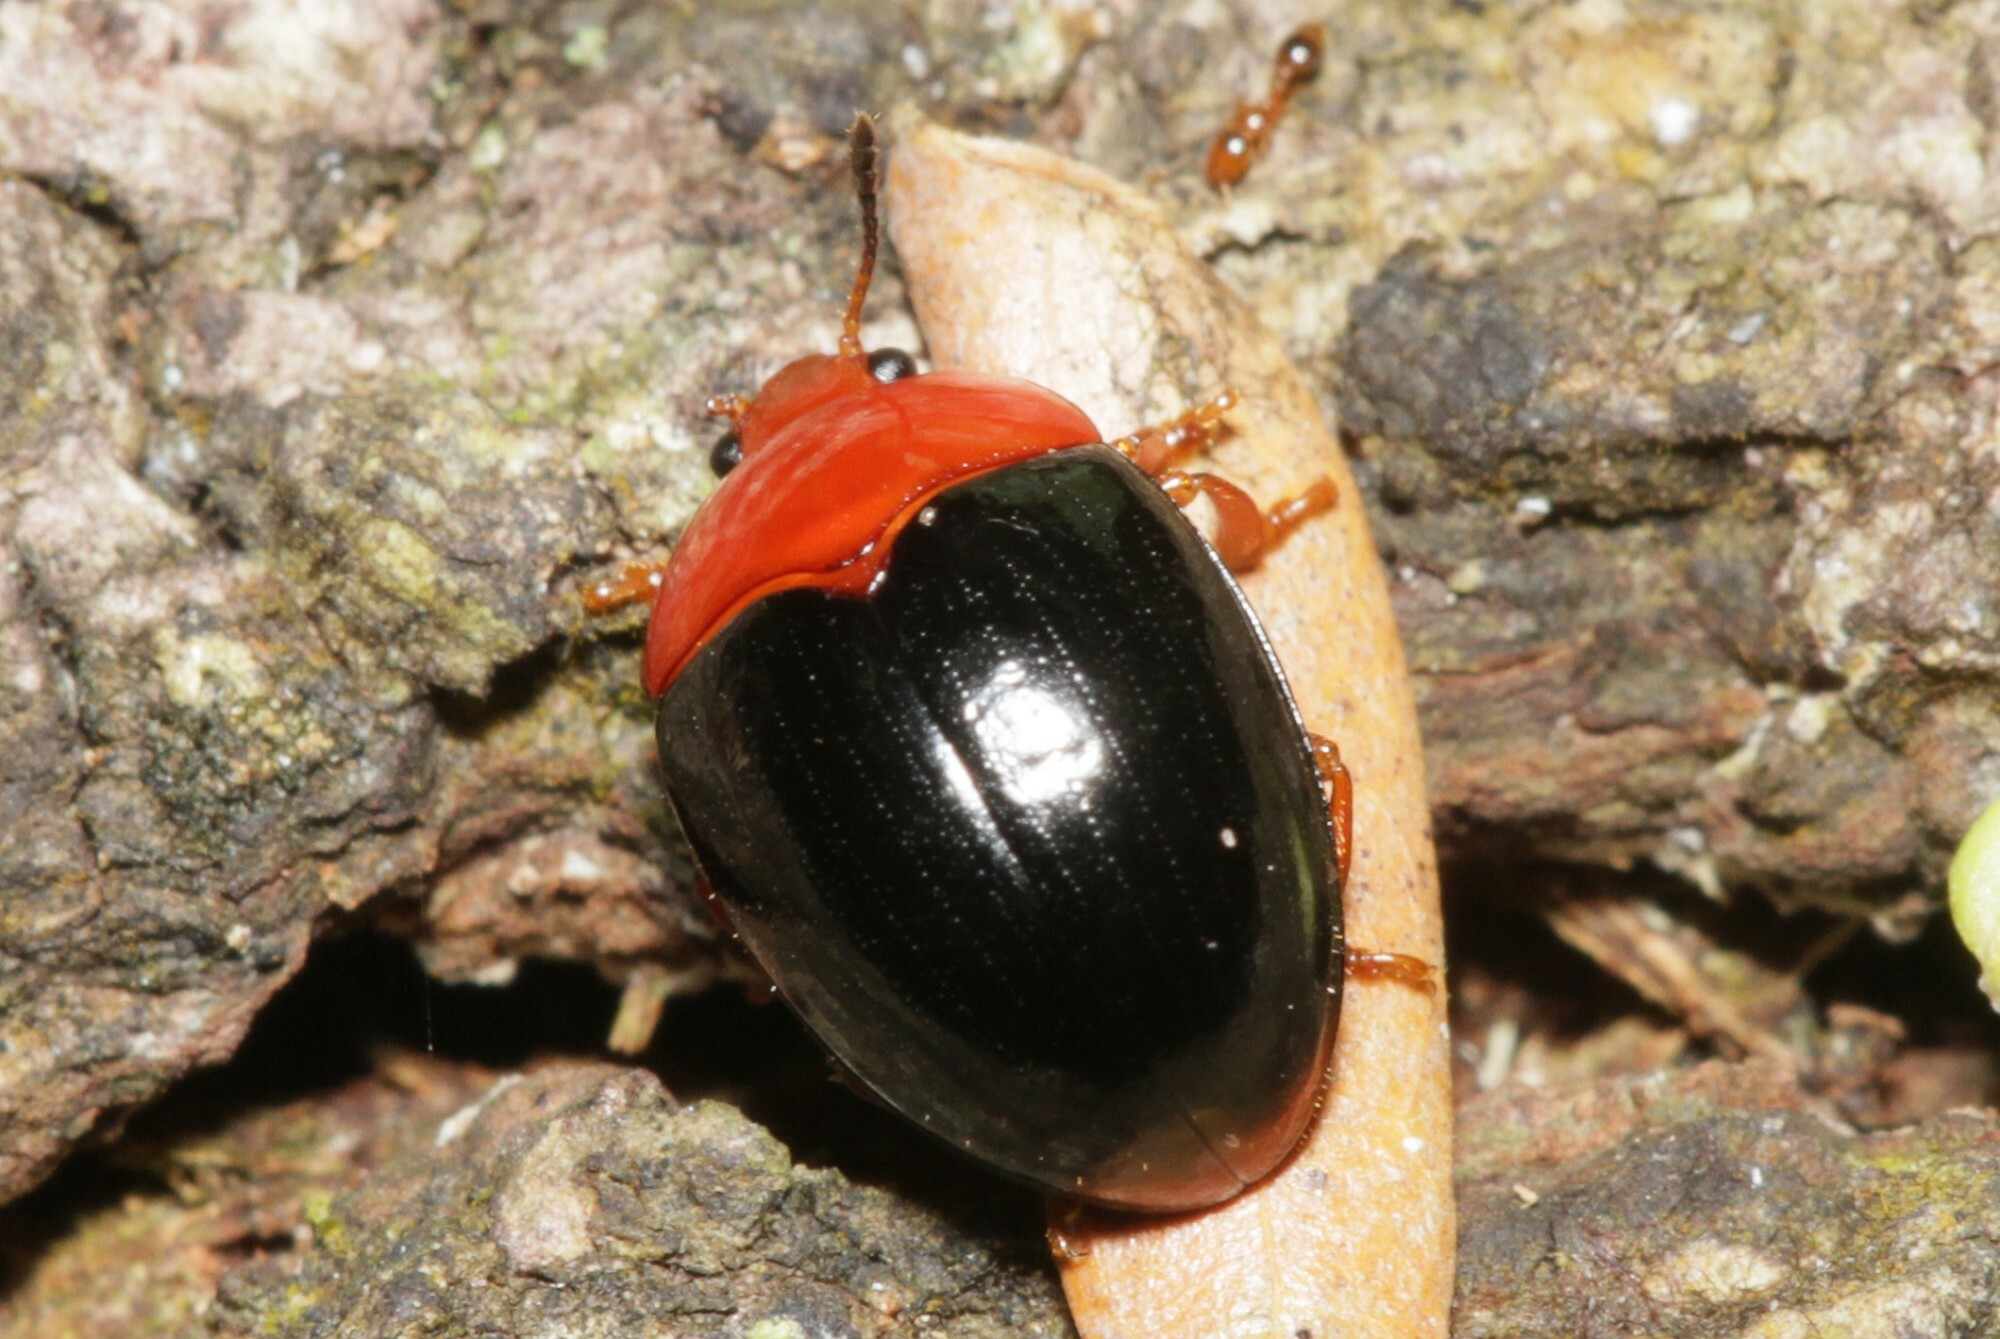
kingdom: Animalia
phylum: Arthropoda
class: Insecta
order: Coleoptera
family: Erotylidae
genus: Lybas
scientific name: Lybas
